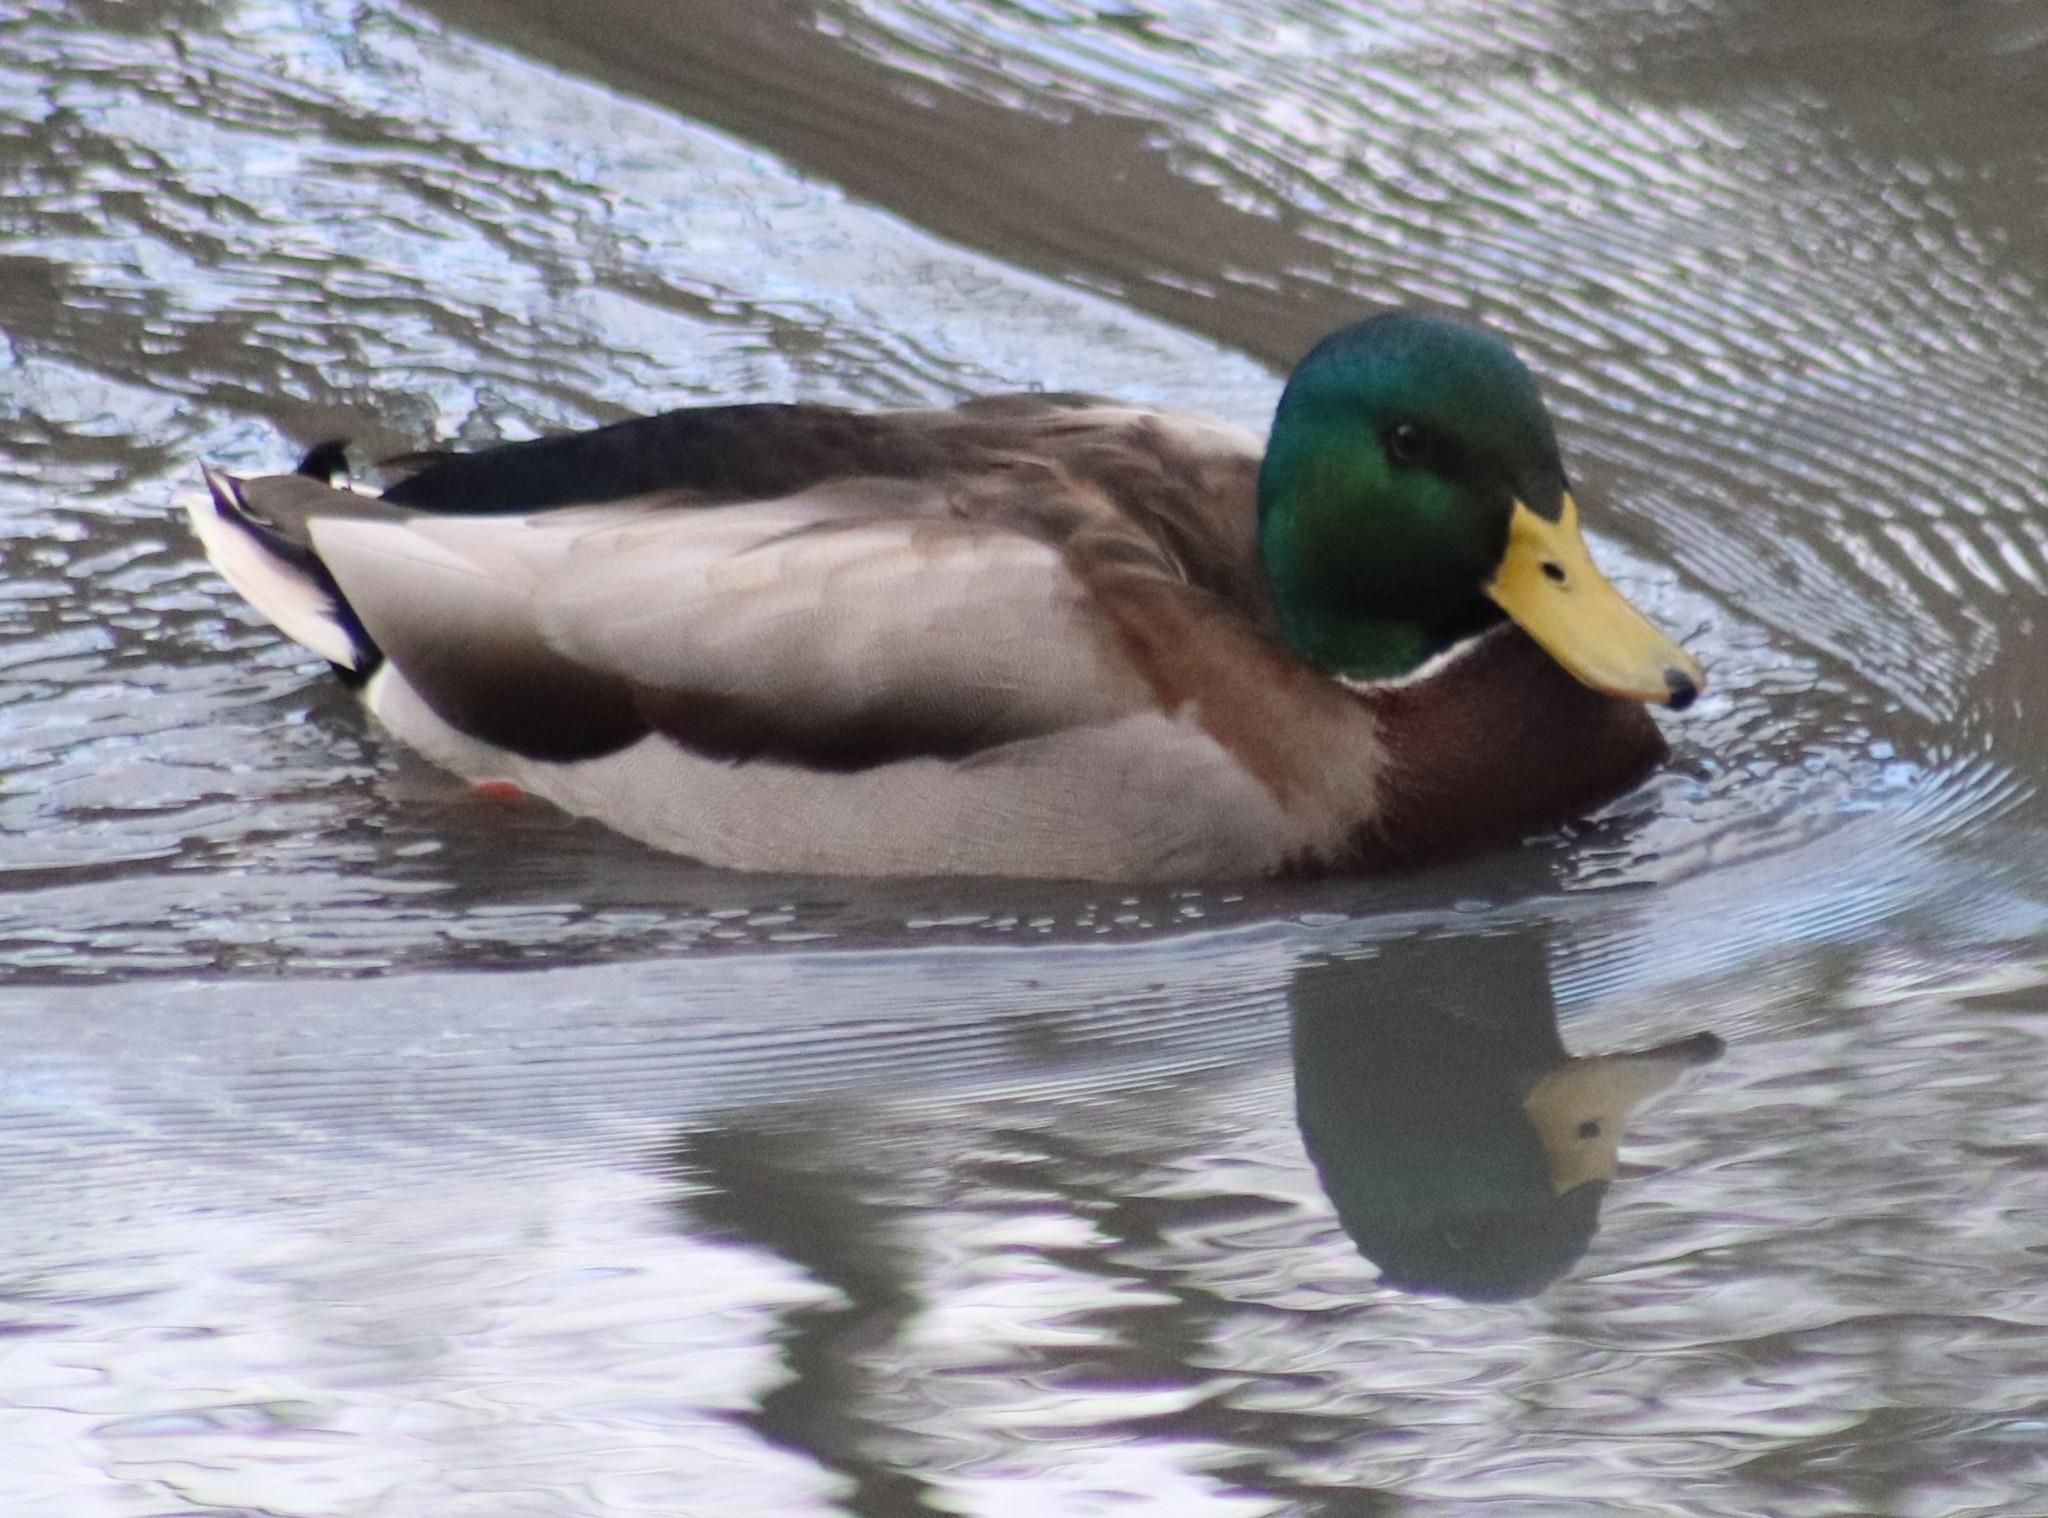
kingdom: Animalia
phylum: Chordata
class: Aves
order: Anseriformes
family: Anatidae
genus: Anas
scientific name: Anas platyrhynchos
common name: Mallard
